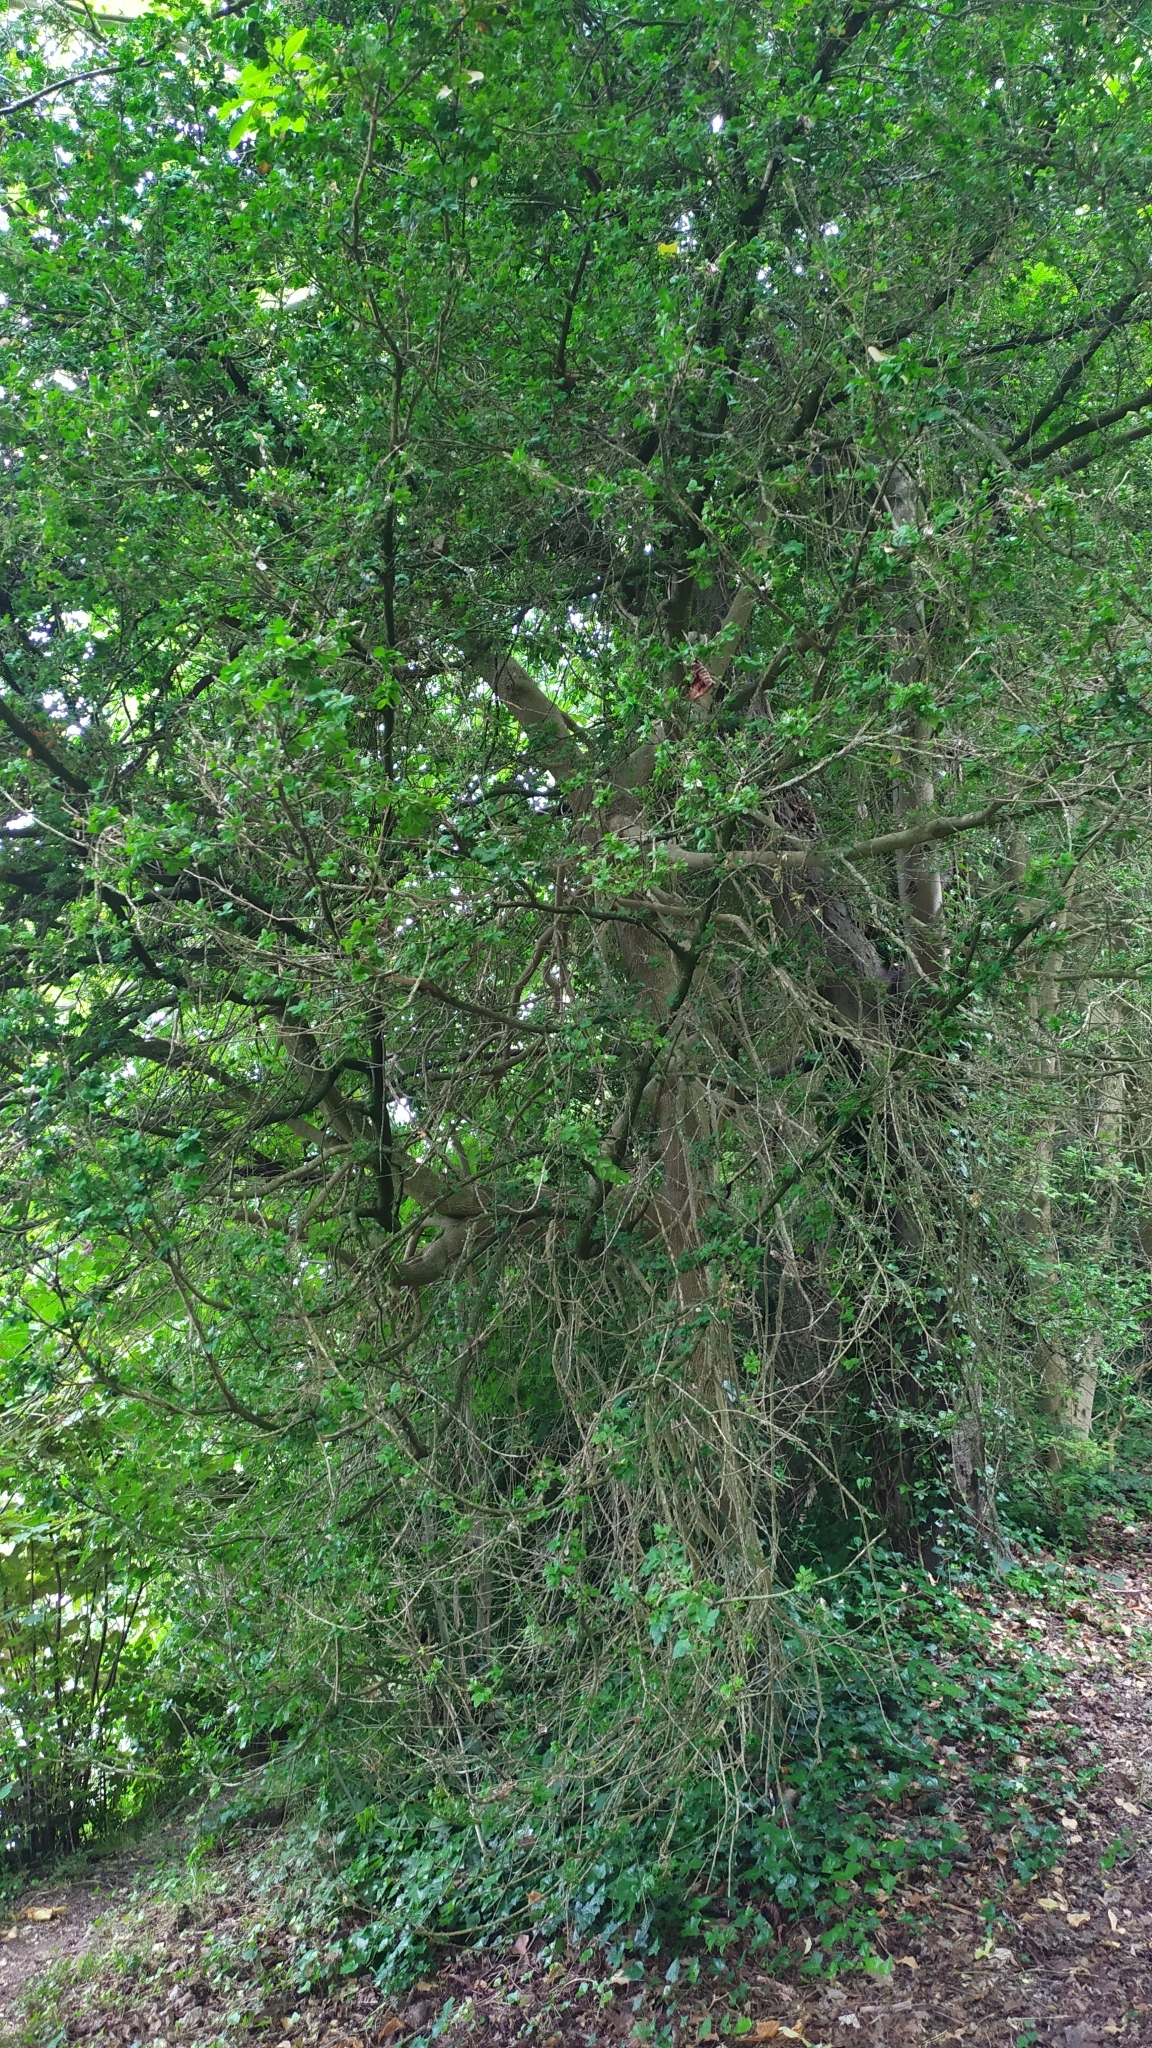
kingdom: Plantae
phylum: Tracheophyta
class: Magnoliopsida
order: Buxales
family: Buxaceae
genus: Buxus
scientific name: Buxus sempervirens
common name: Box
